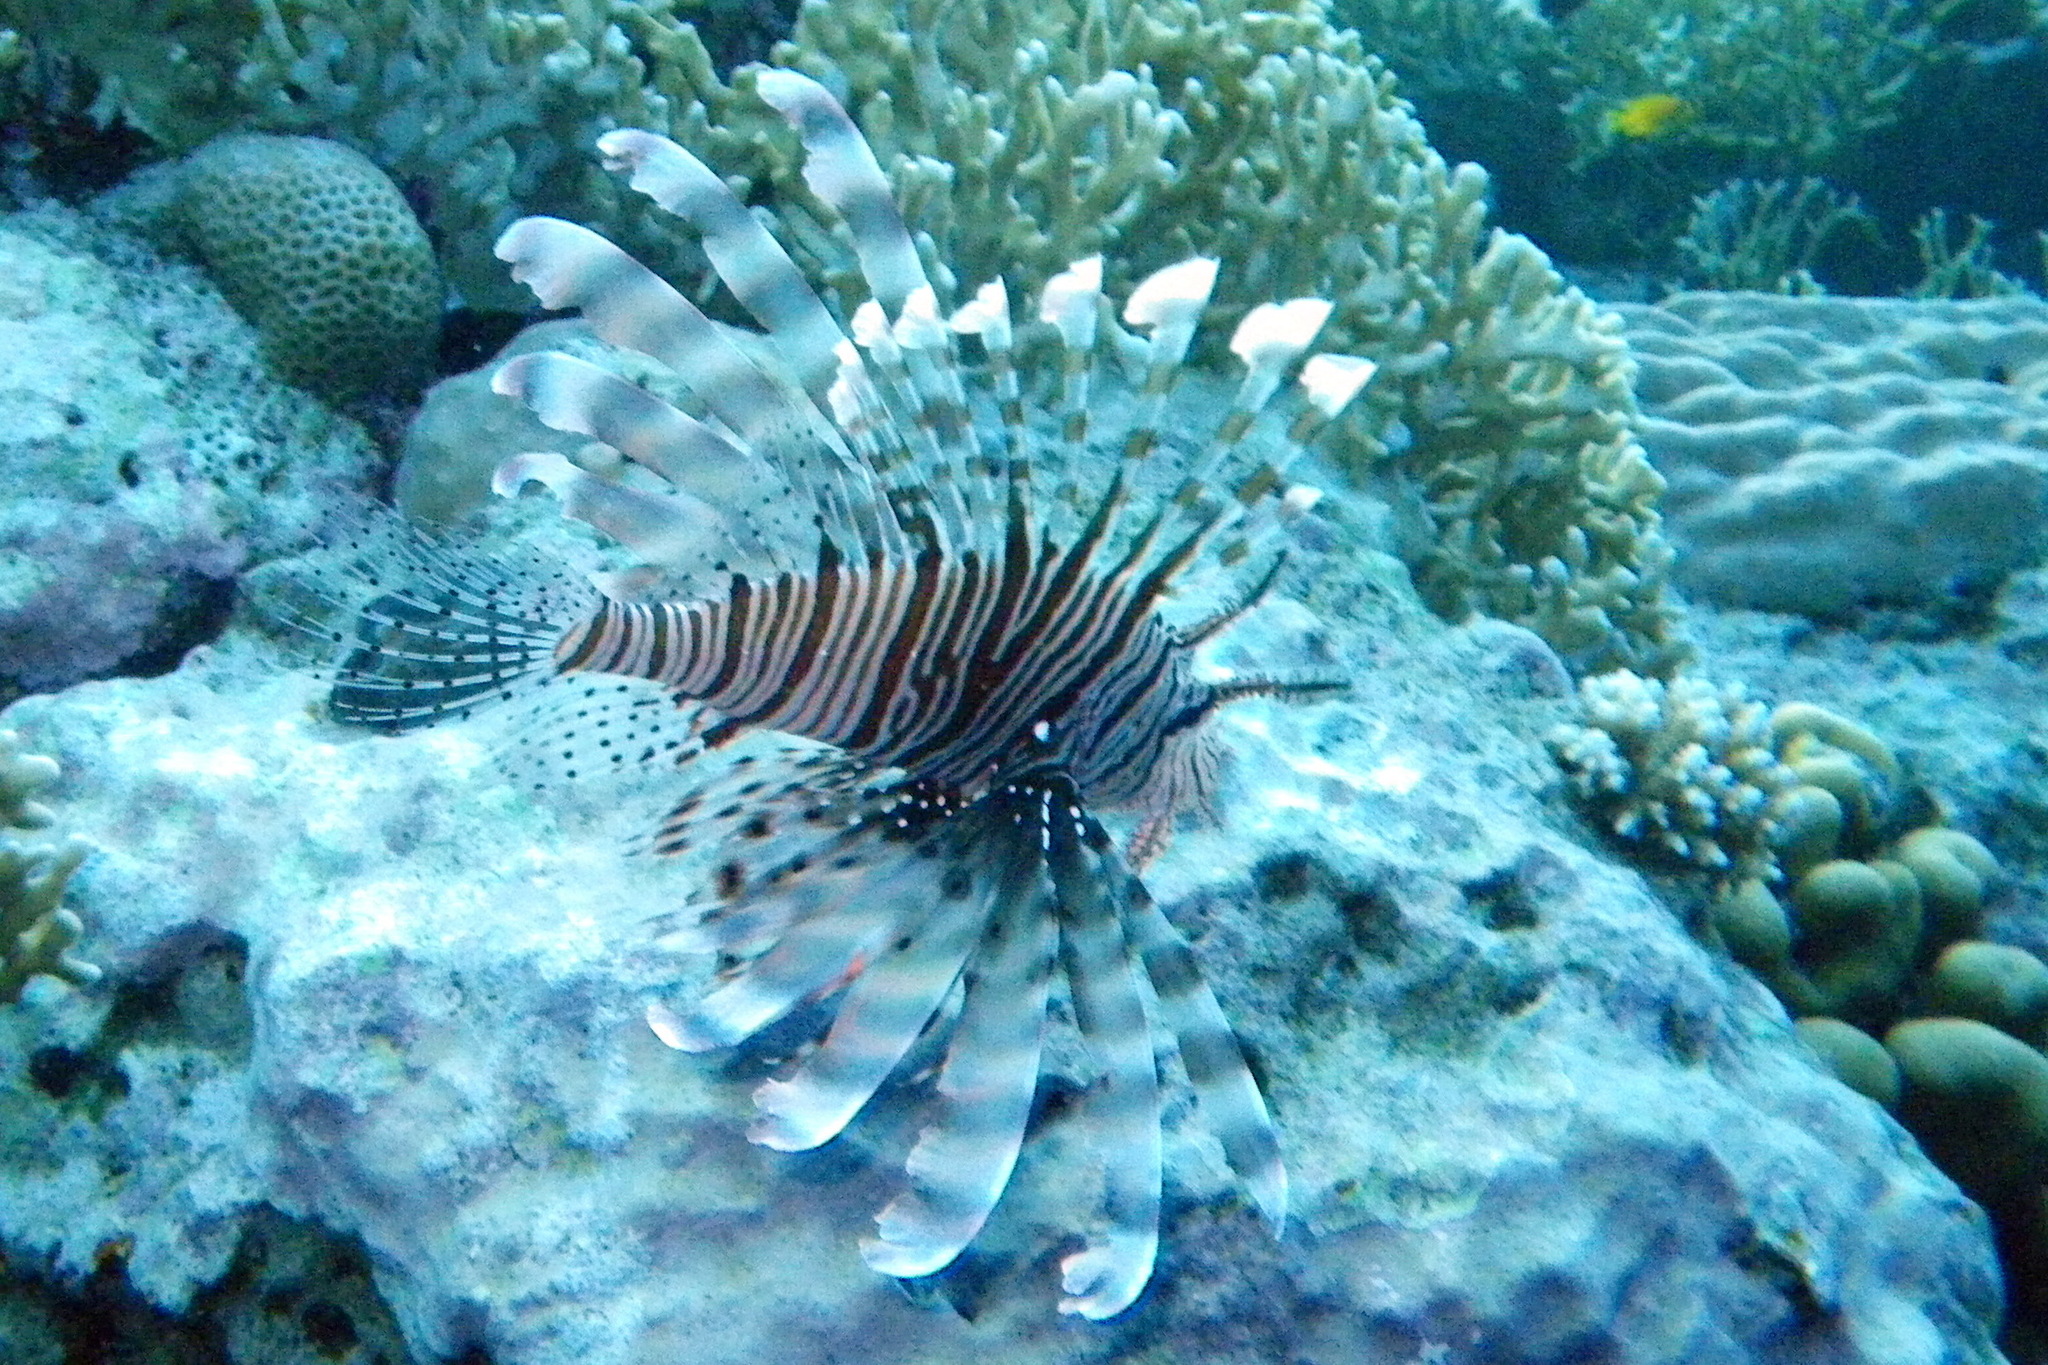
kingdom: Animalia
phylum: Chordata
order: Scorpaeniformes
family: Scorpaenidae
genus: Pterois
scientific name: Pterois miles
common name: Devil firefish
